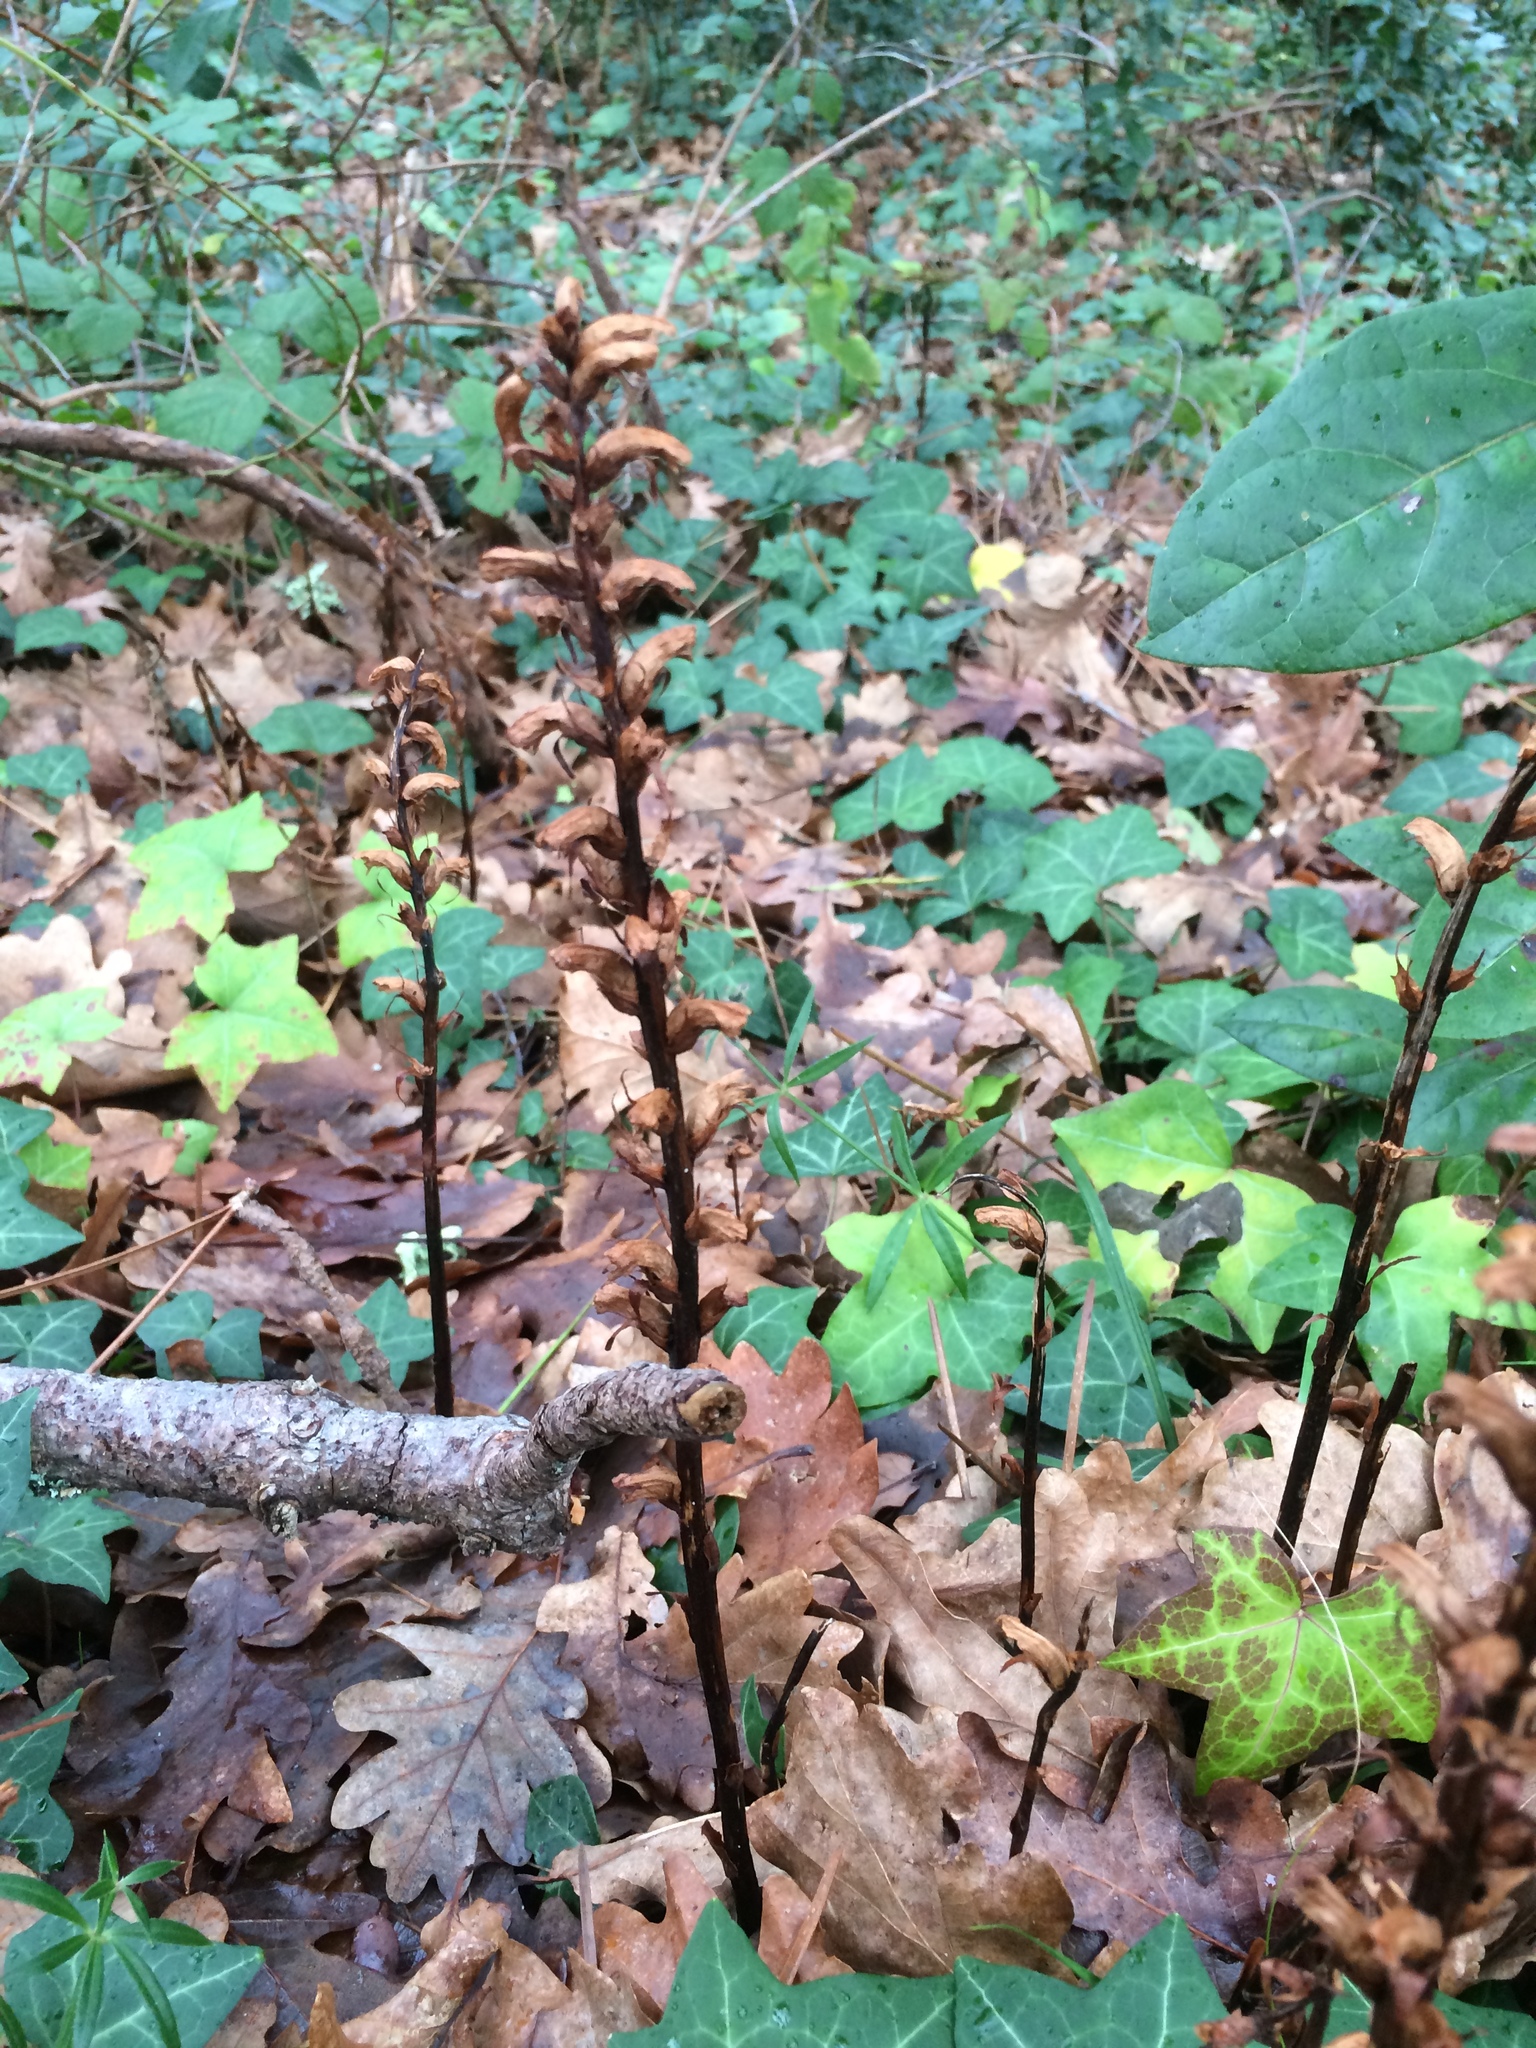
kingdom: Plantae
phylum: Tracheophyta
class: Magnoliopsida
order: Lamiales
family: Orobanchaceae
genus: Orobanche
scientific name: Orobanche hederae
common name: Ivy broomrape
